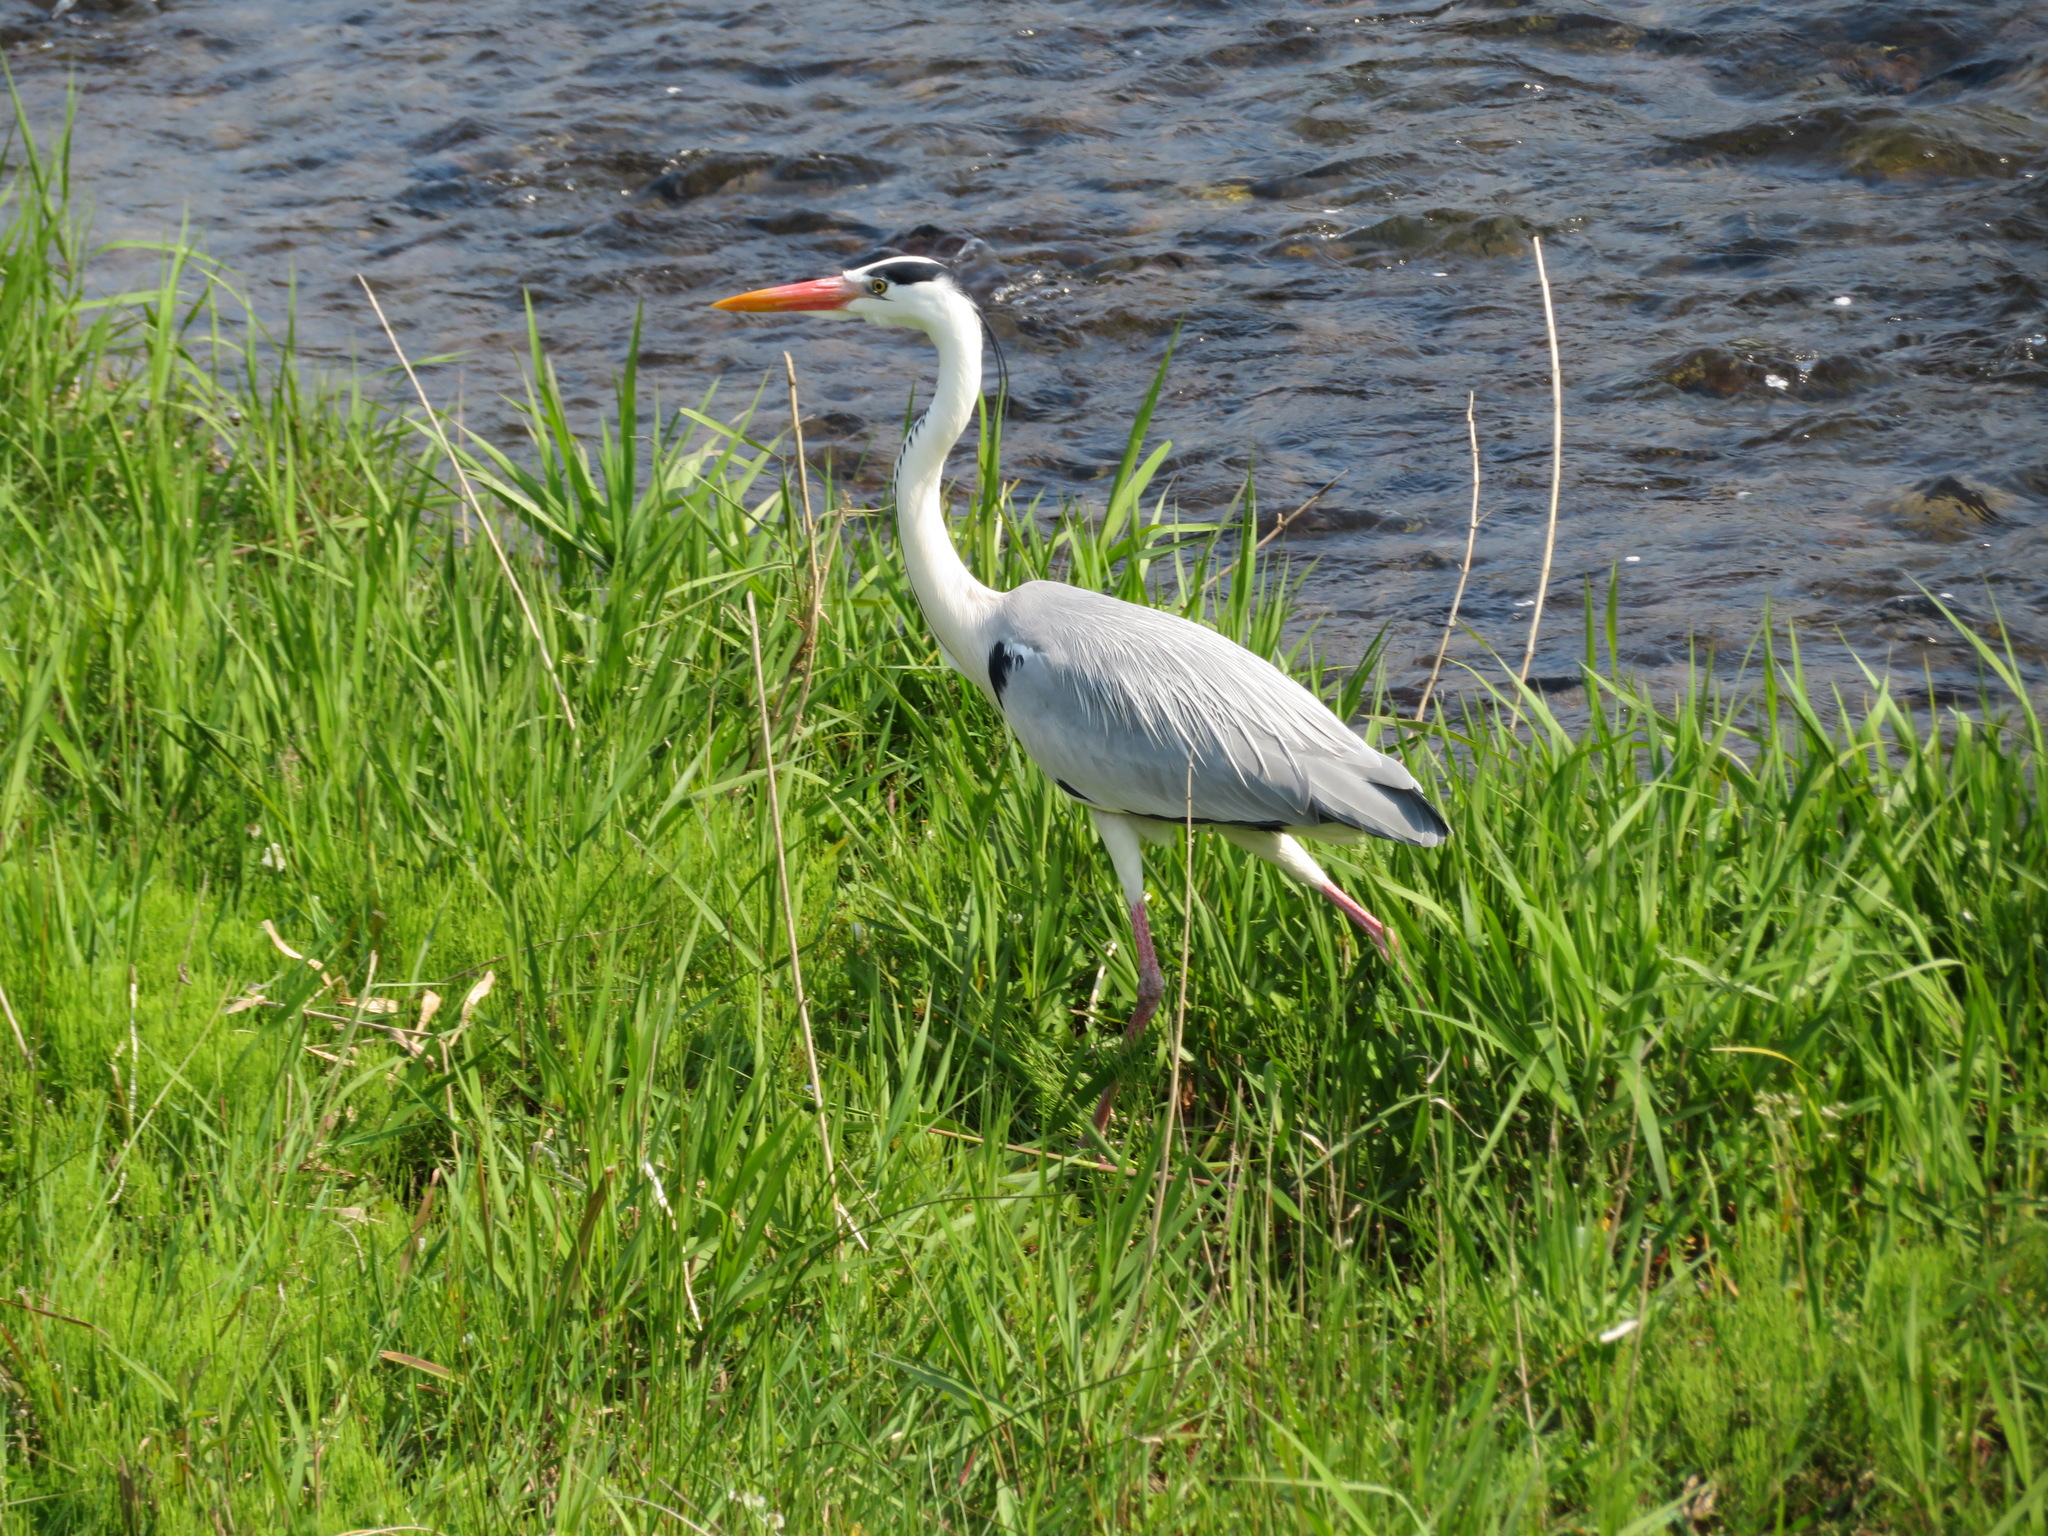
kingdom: Animalia
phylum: Chordata
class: Aves
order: Pelecaniformes
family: Ardeidae
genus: Ardea
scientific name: Ardea cinerea
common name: Grey heron
